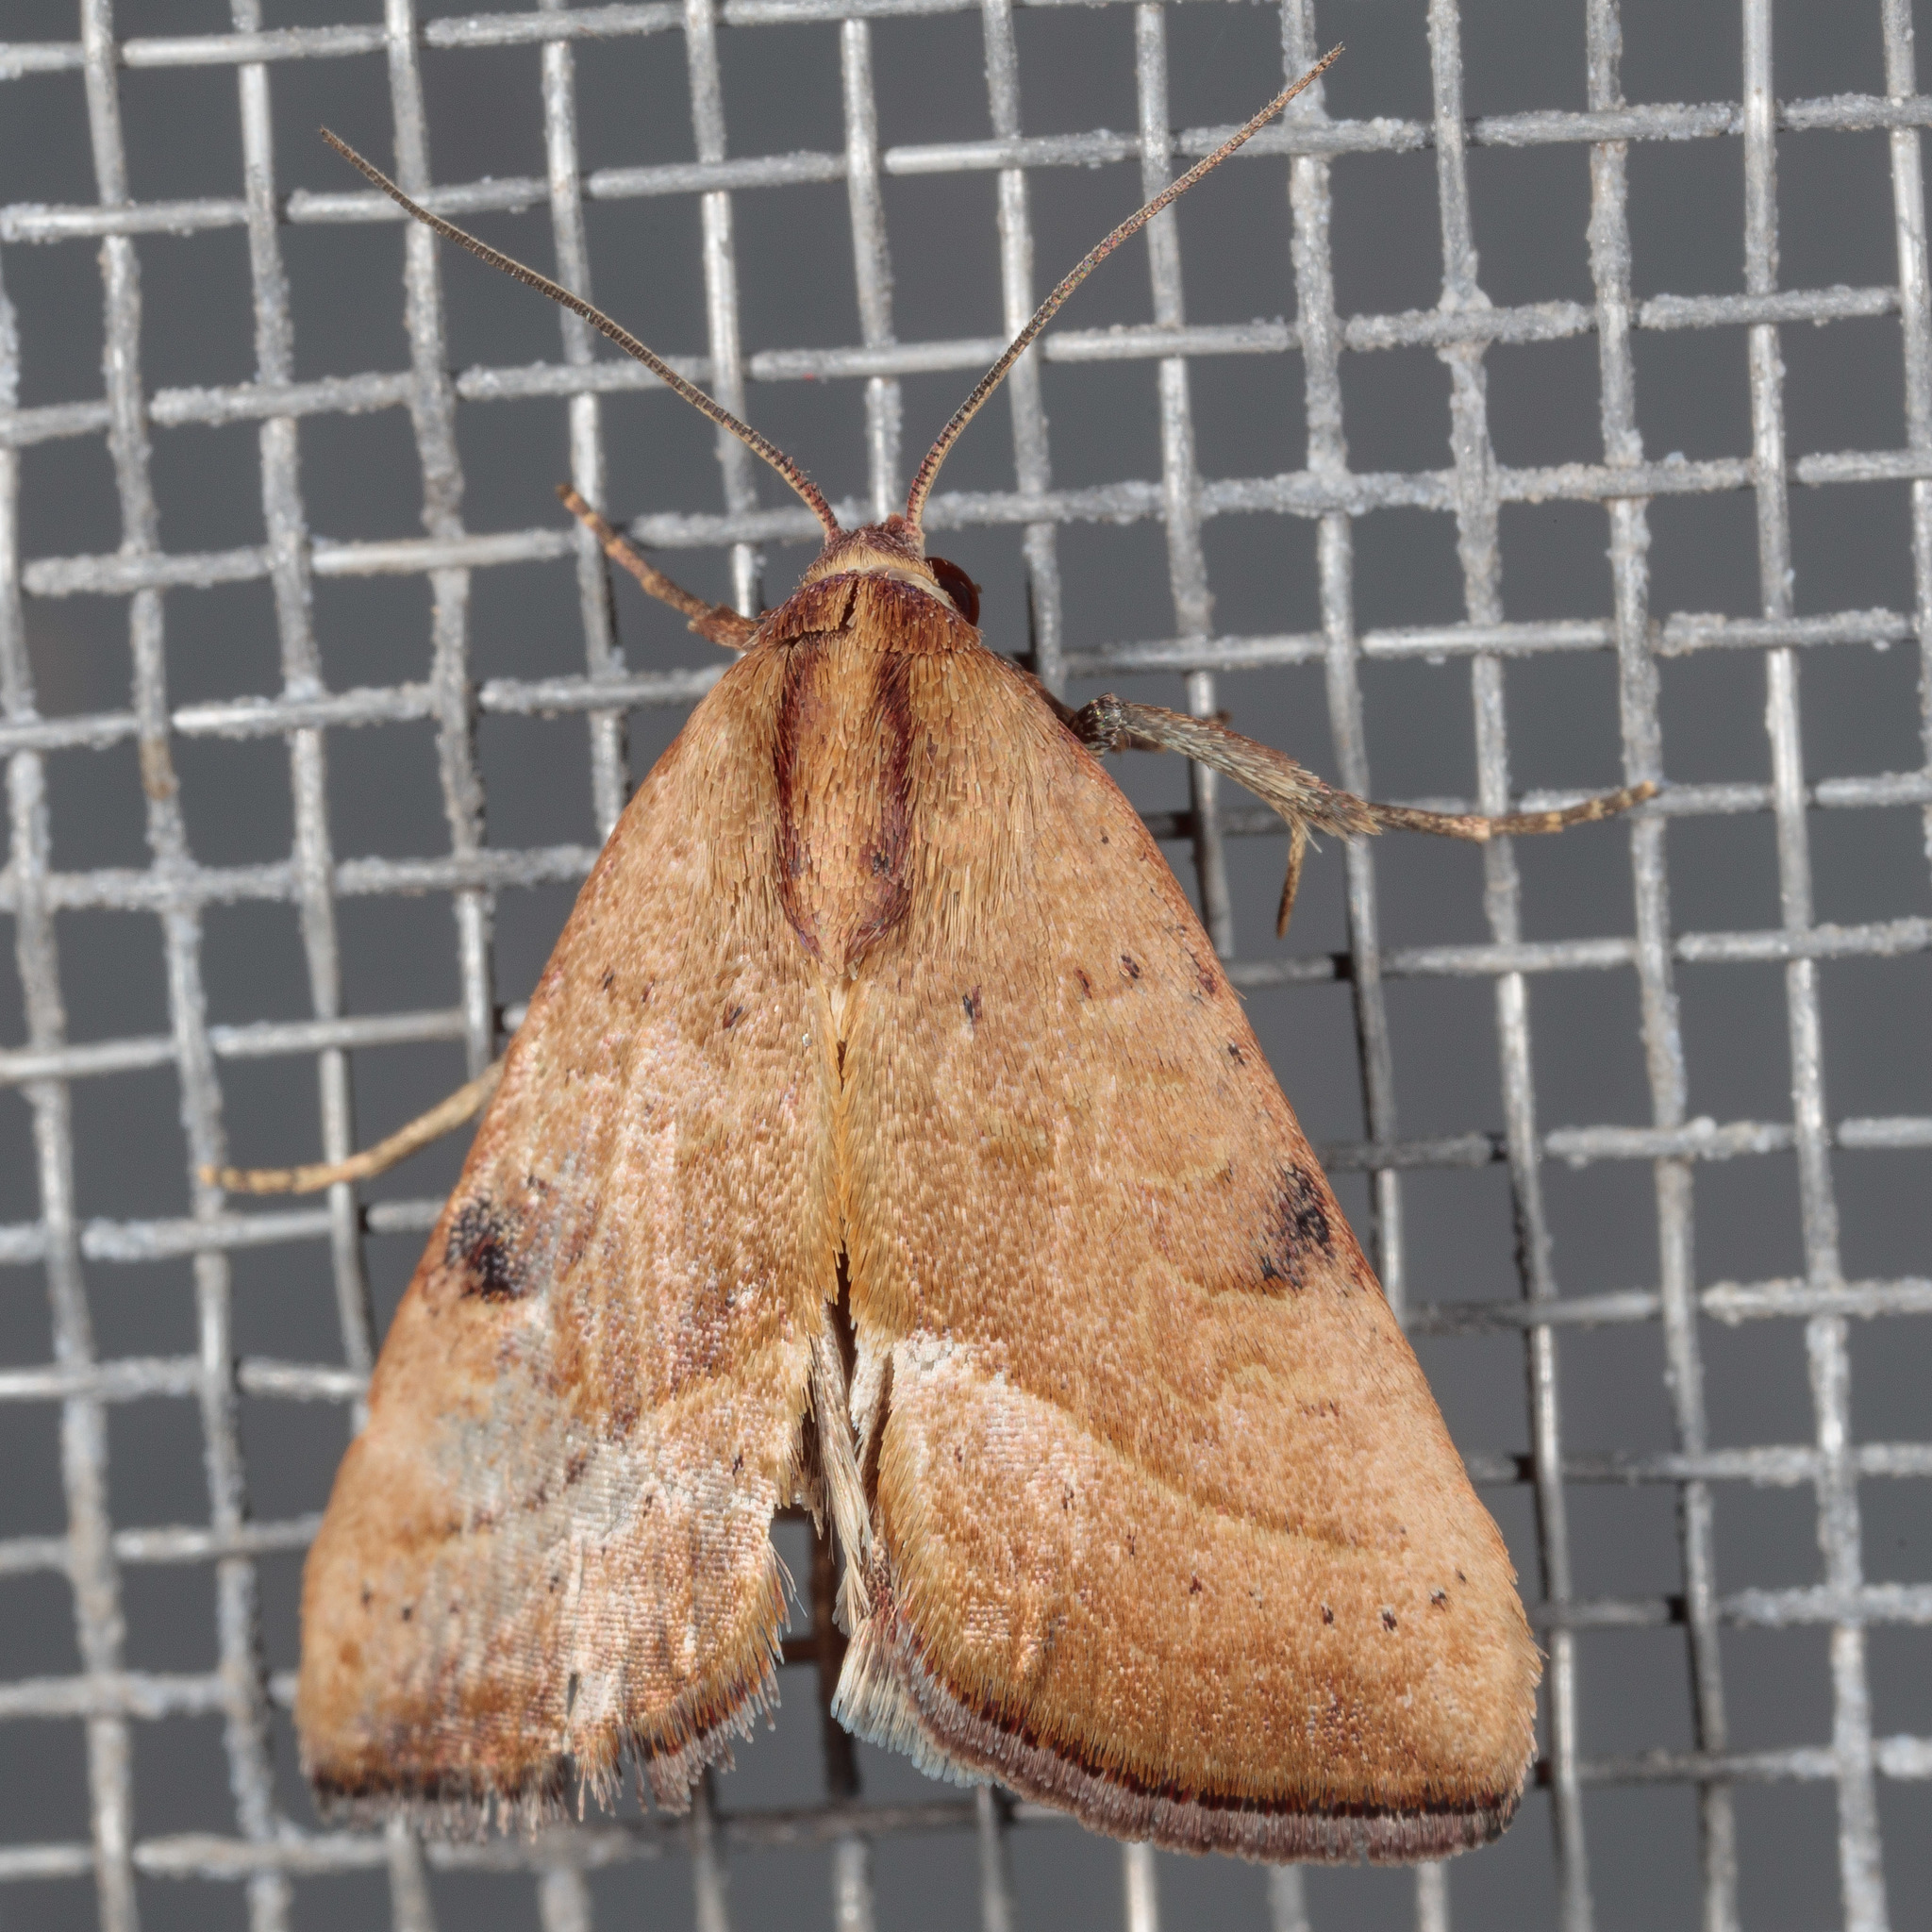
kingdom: Animalia
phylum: Arthropoda
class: Insecta
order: Lepidoptera
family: Noctuidae
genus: Galgula
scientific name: Galgula partita
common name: Wedgeling
